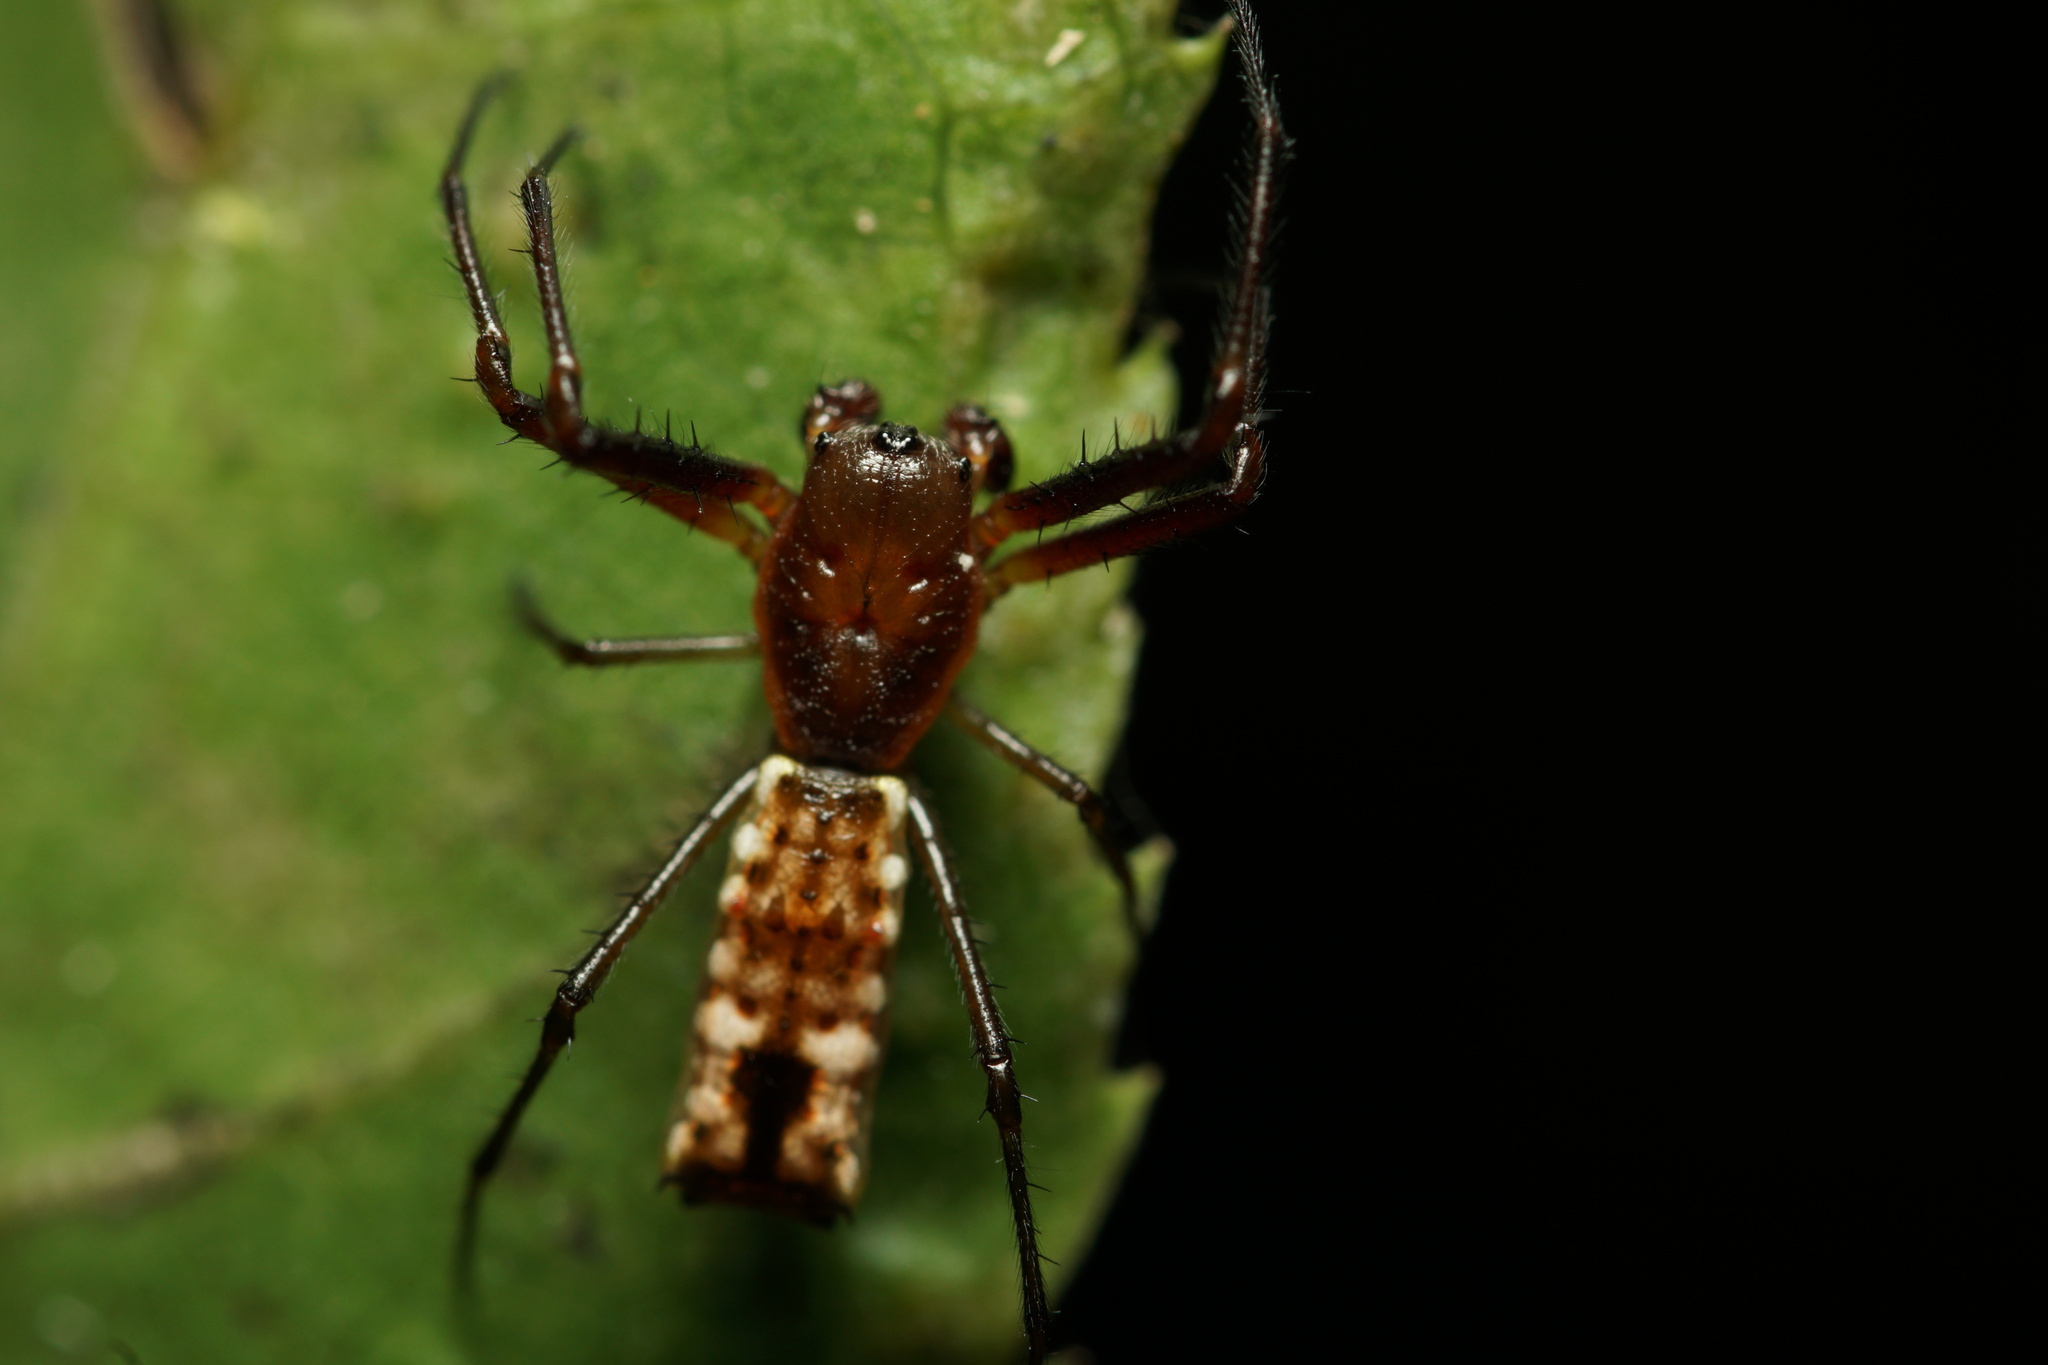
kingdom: Animalia
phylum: Arthropoda
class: Arachnida
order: Araneae
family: Araneidae
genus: Micrathena
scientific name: Micrathena nigrichelis
